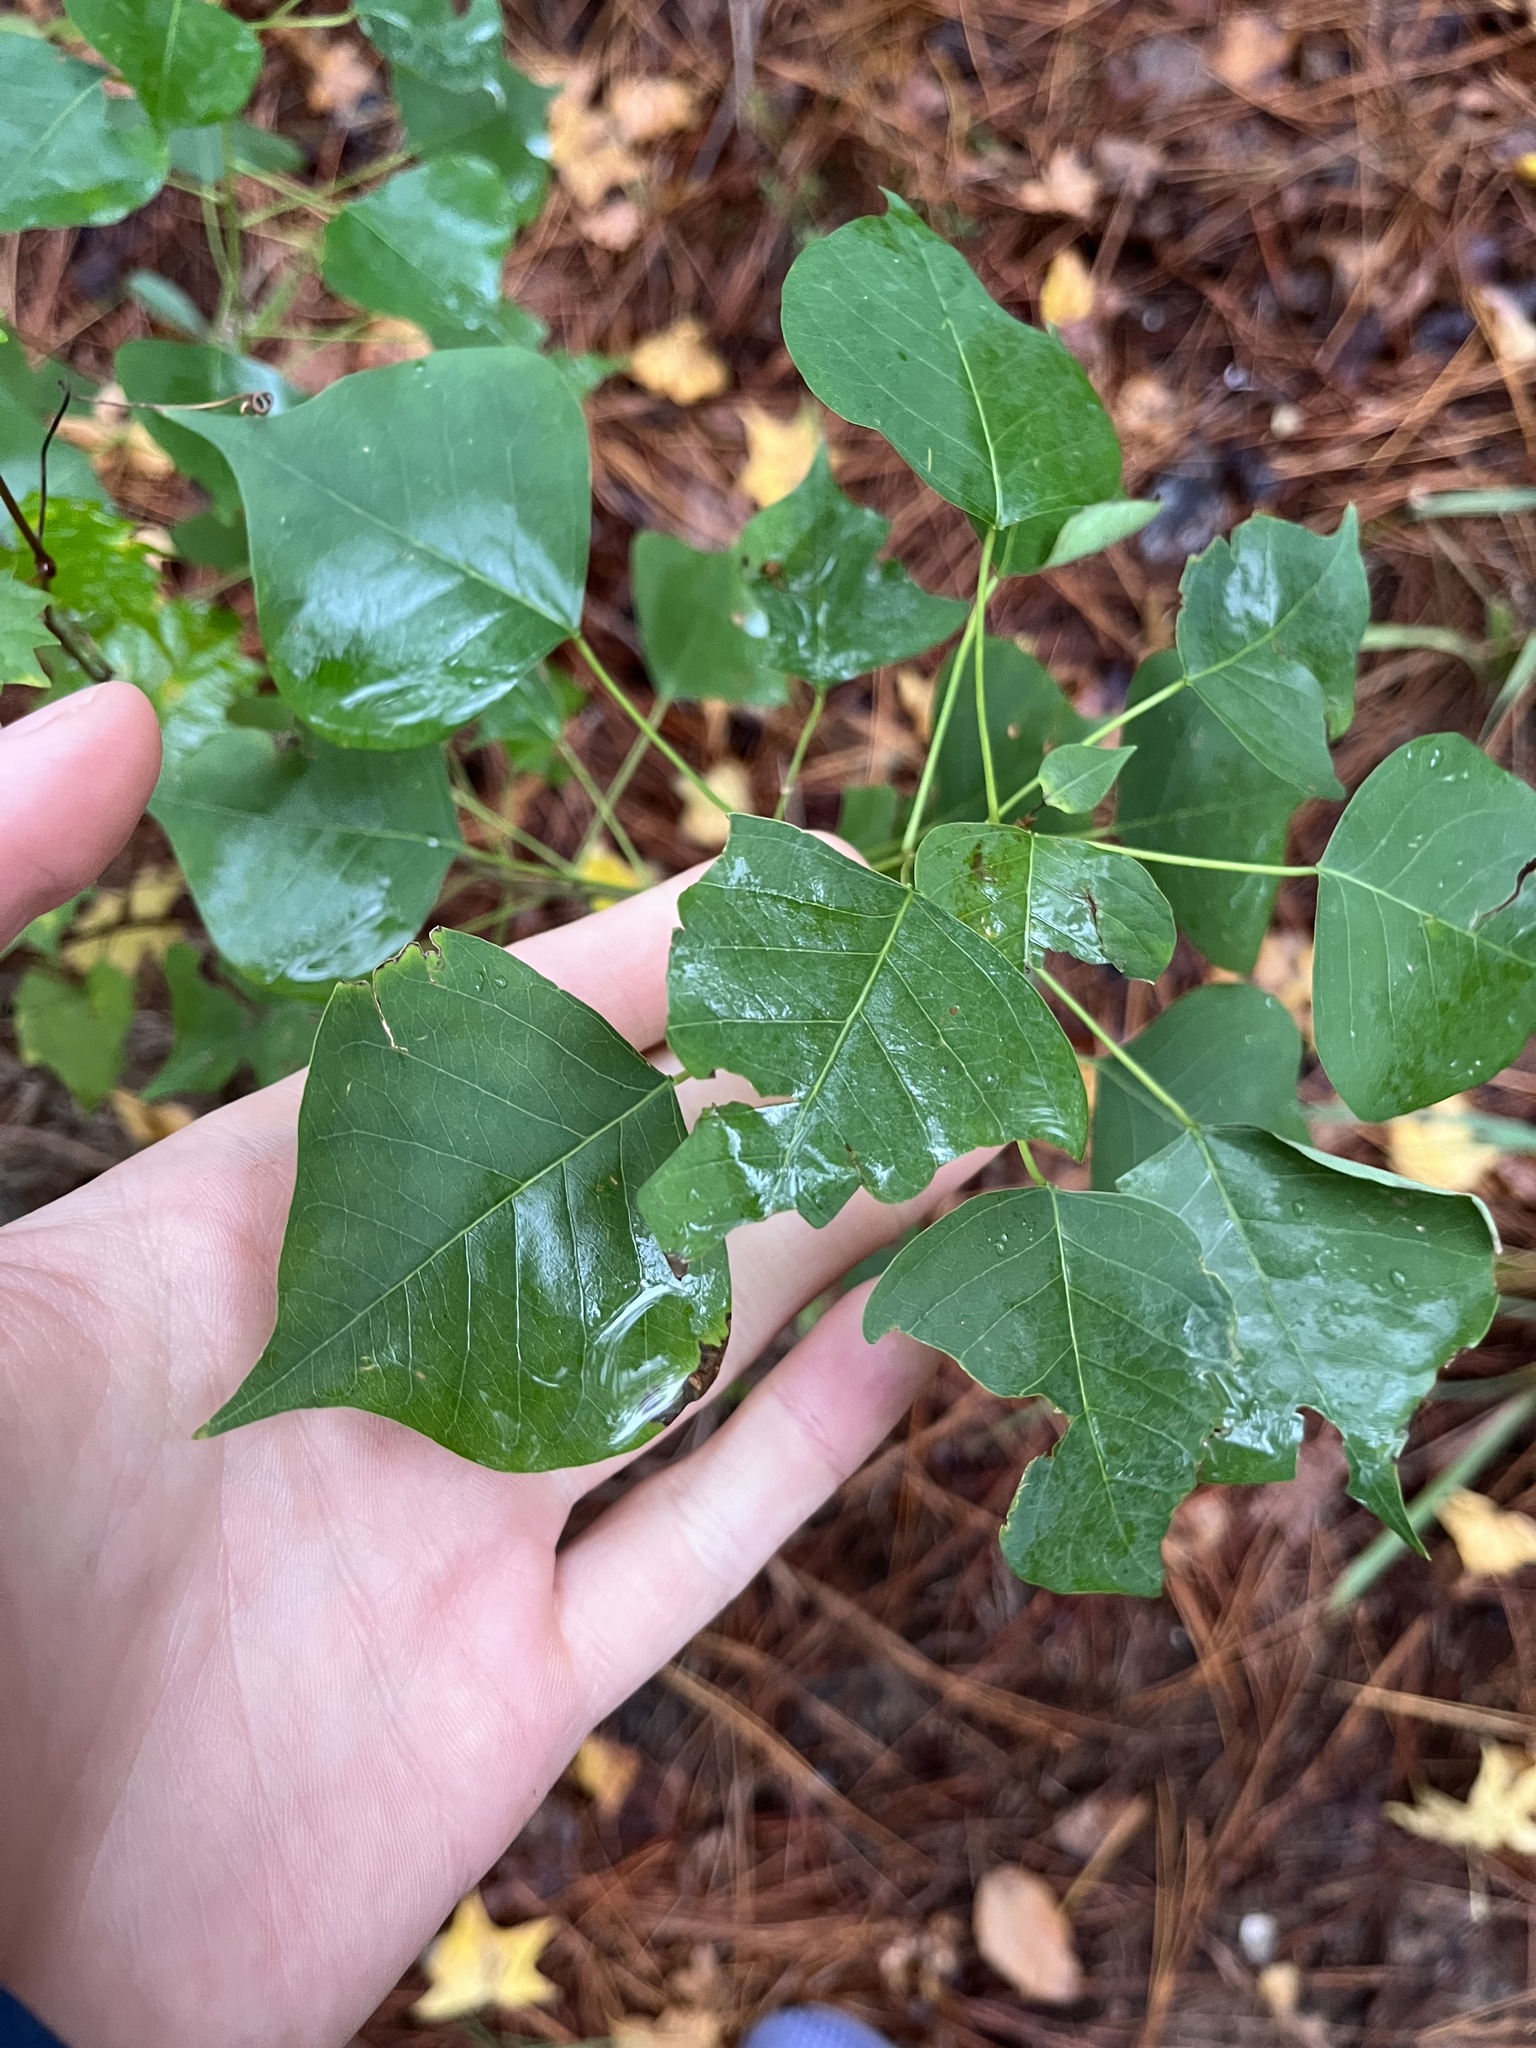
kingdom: Plantae
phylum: Tracheophyta
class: Magnoliopsida
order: Malpighiales
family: Euphorbiaceae
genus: Triadica
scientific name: Triadica sebifera
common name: Chinese tallow
